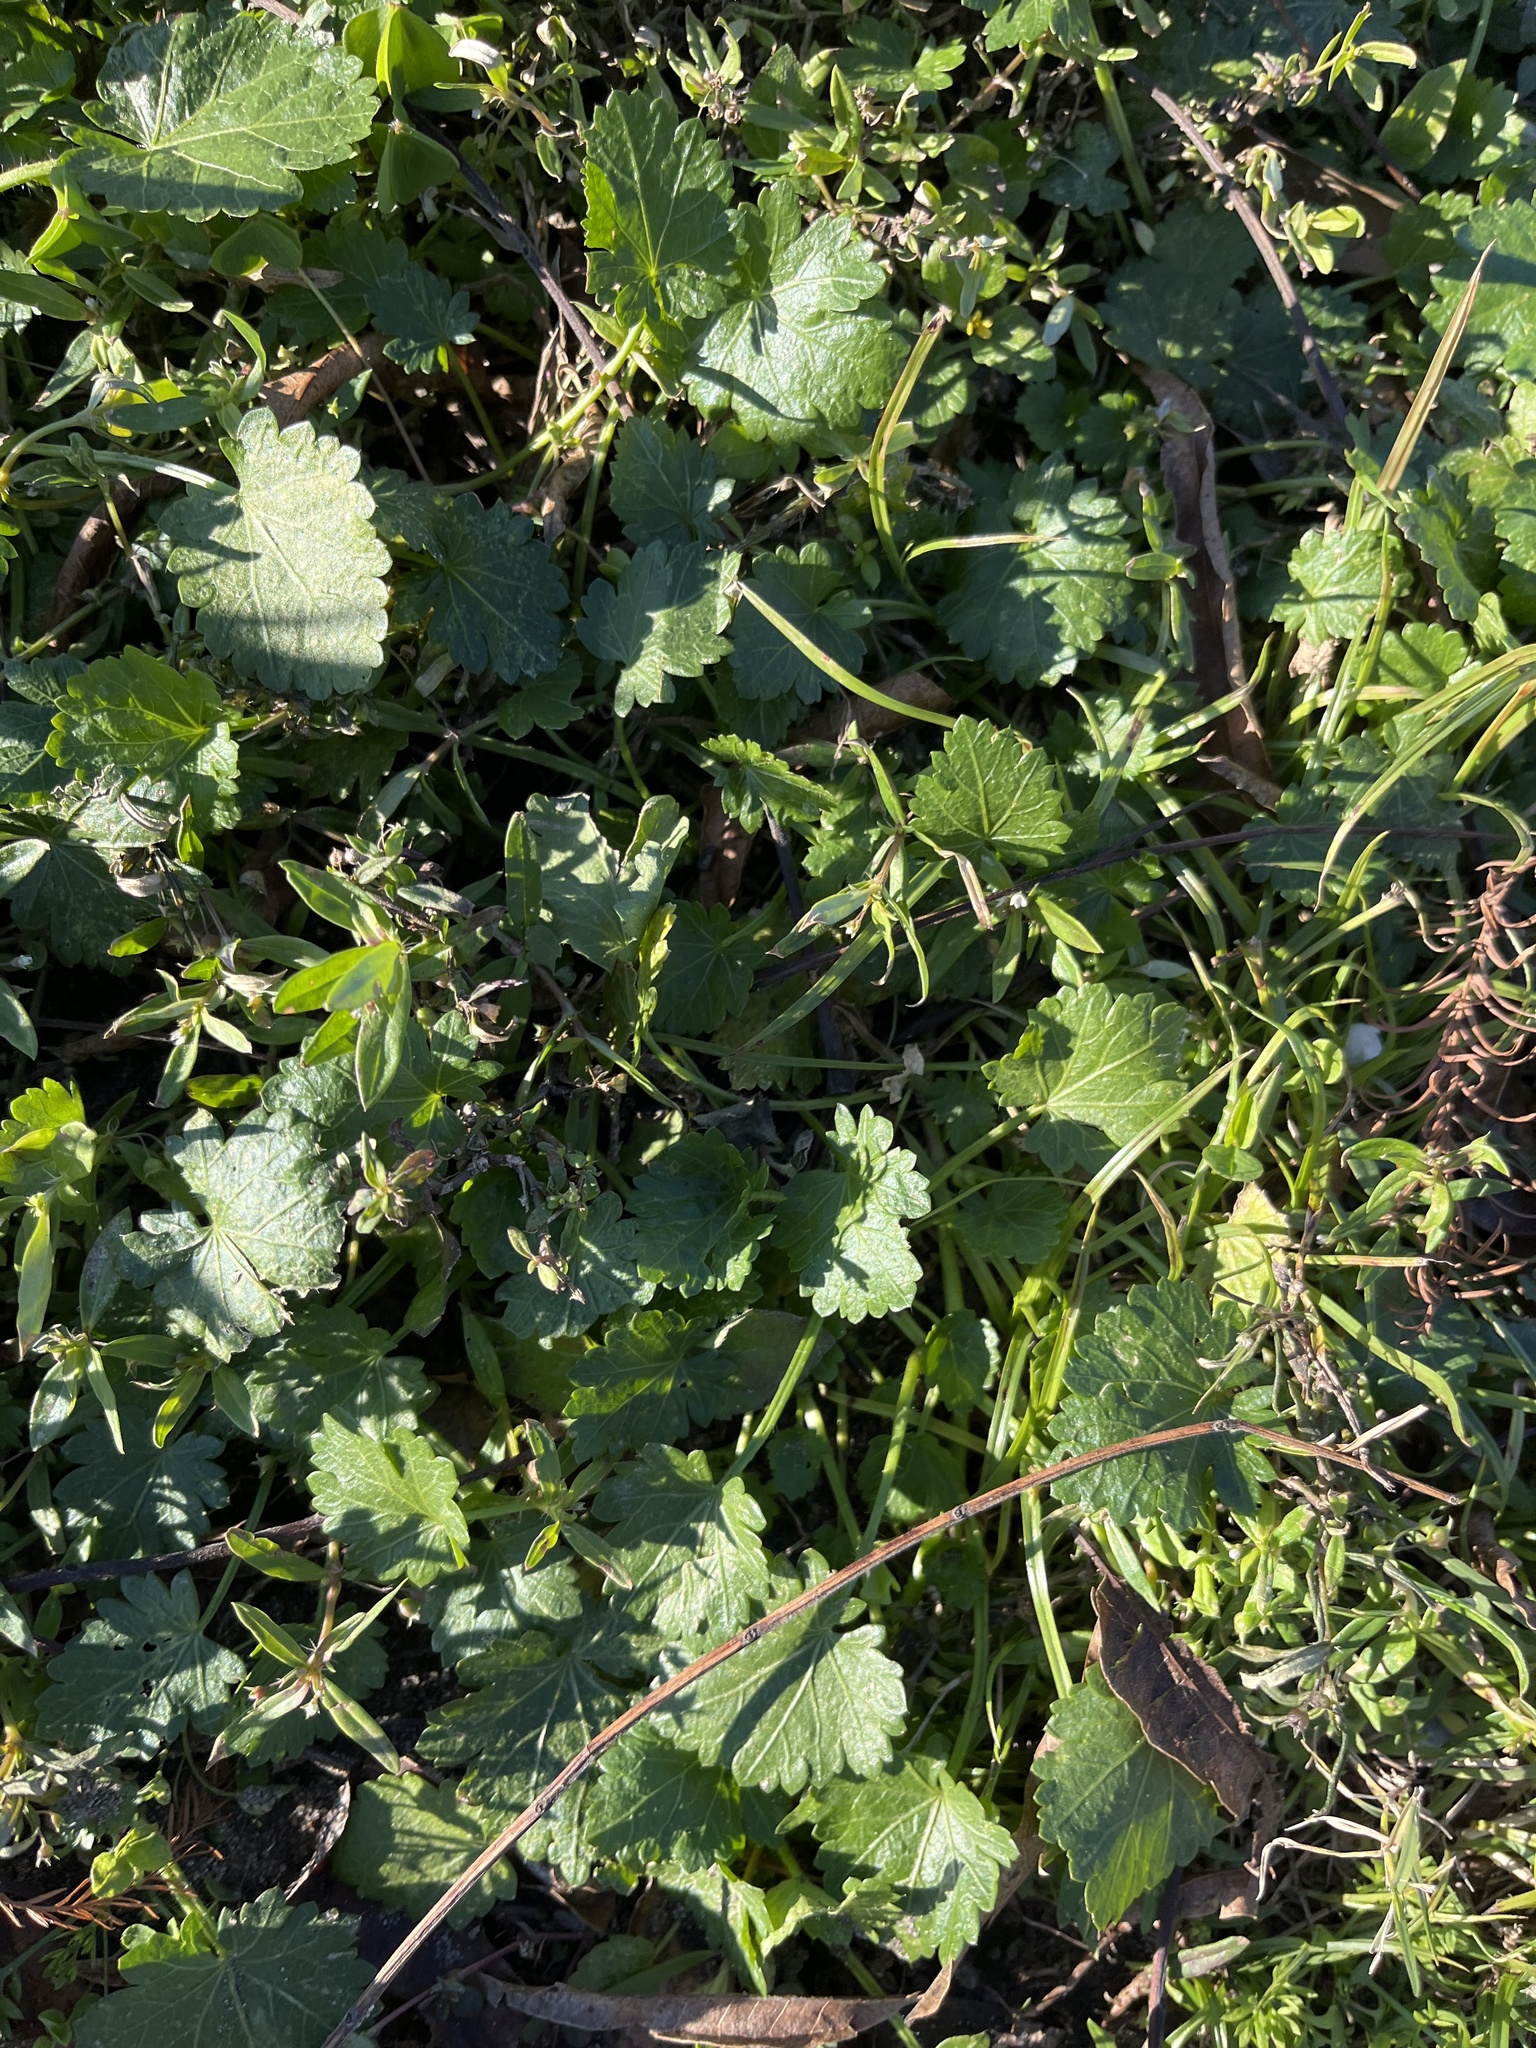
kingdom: Plantae
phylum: Tracheophyta
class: Magnoliopsida
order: Malvales
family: Malvaceae
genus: Modiola
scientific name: Modiola caroliniana
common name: Carolina bristlemallow
